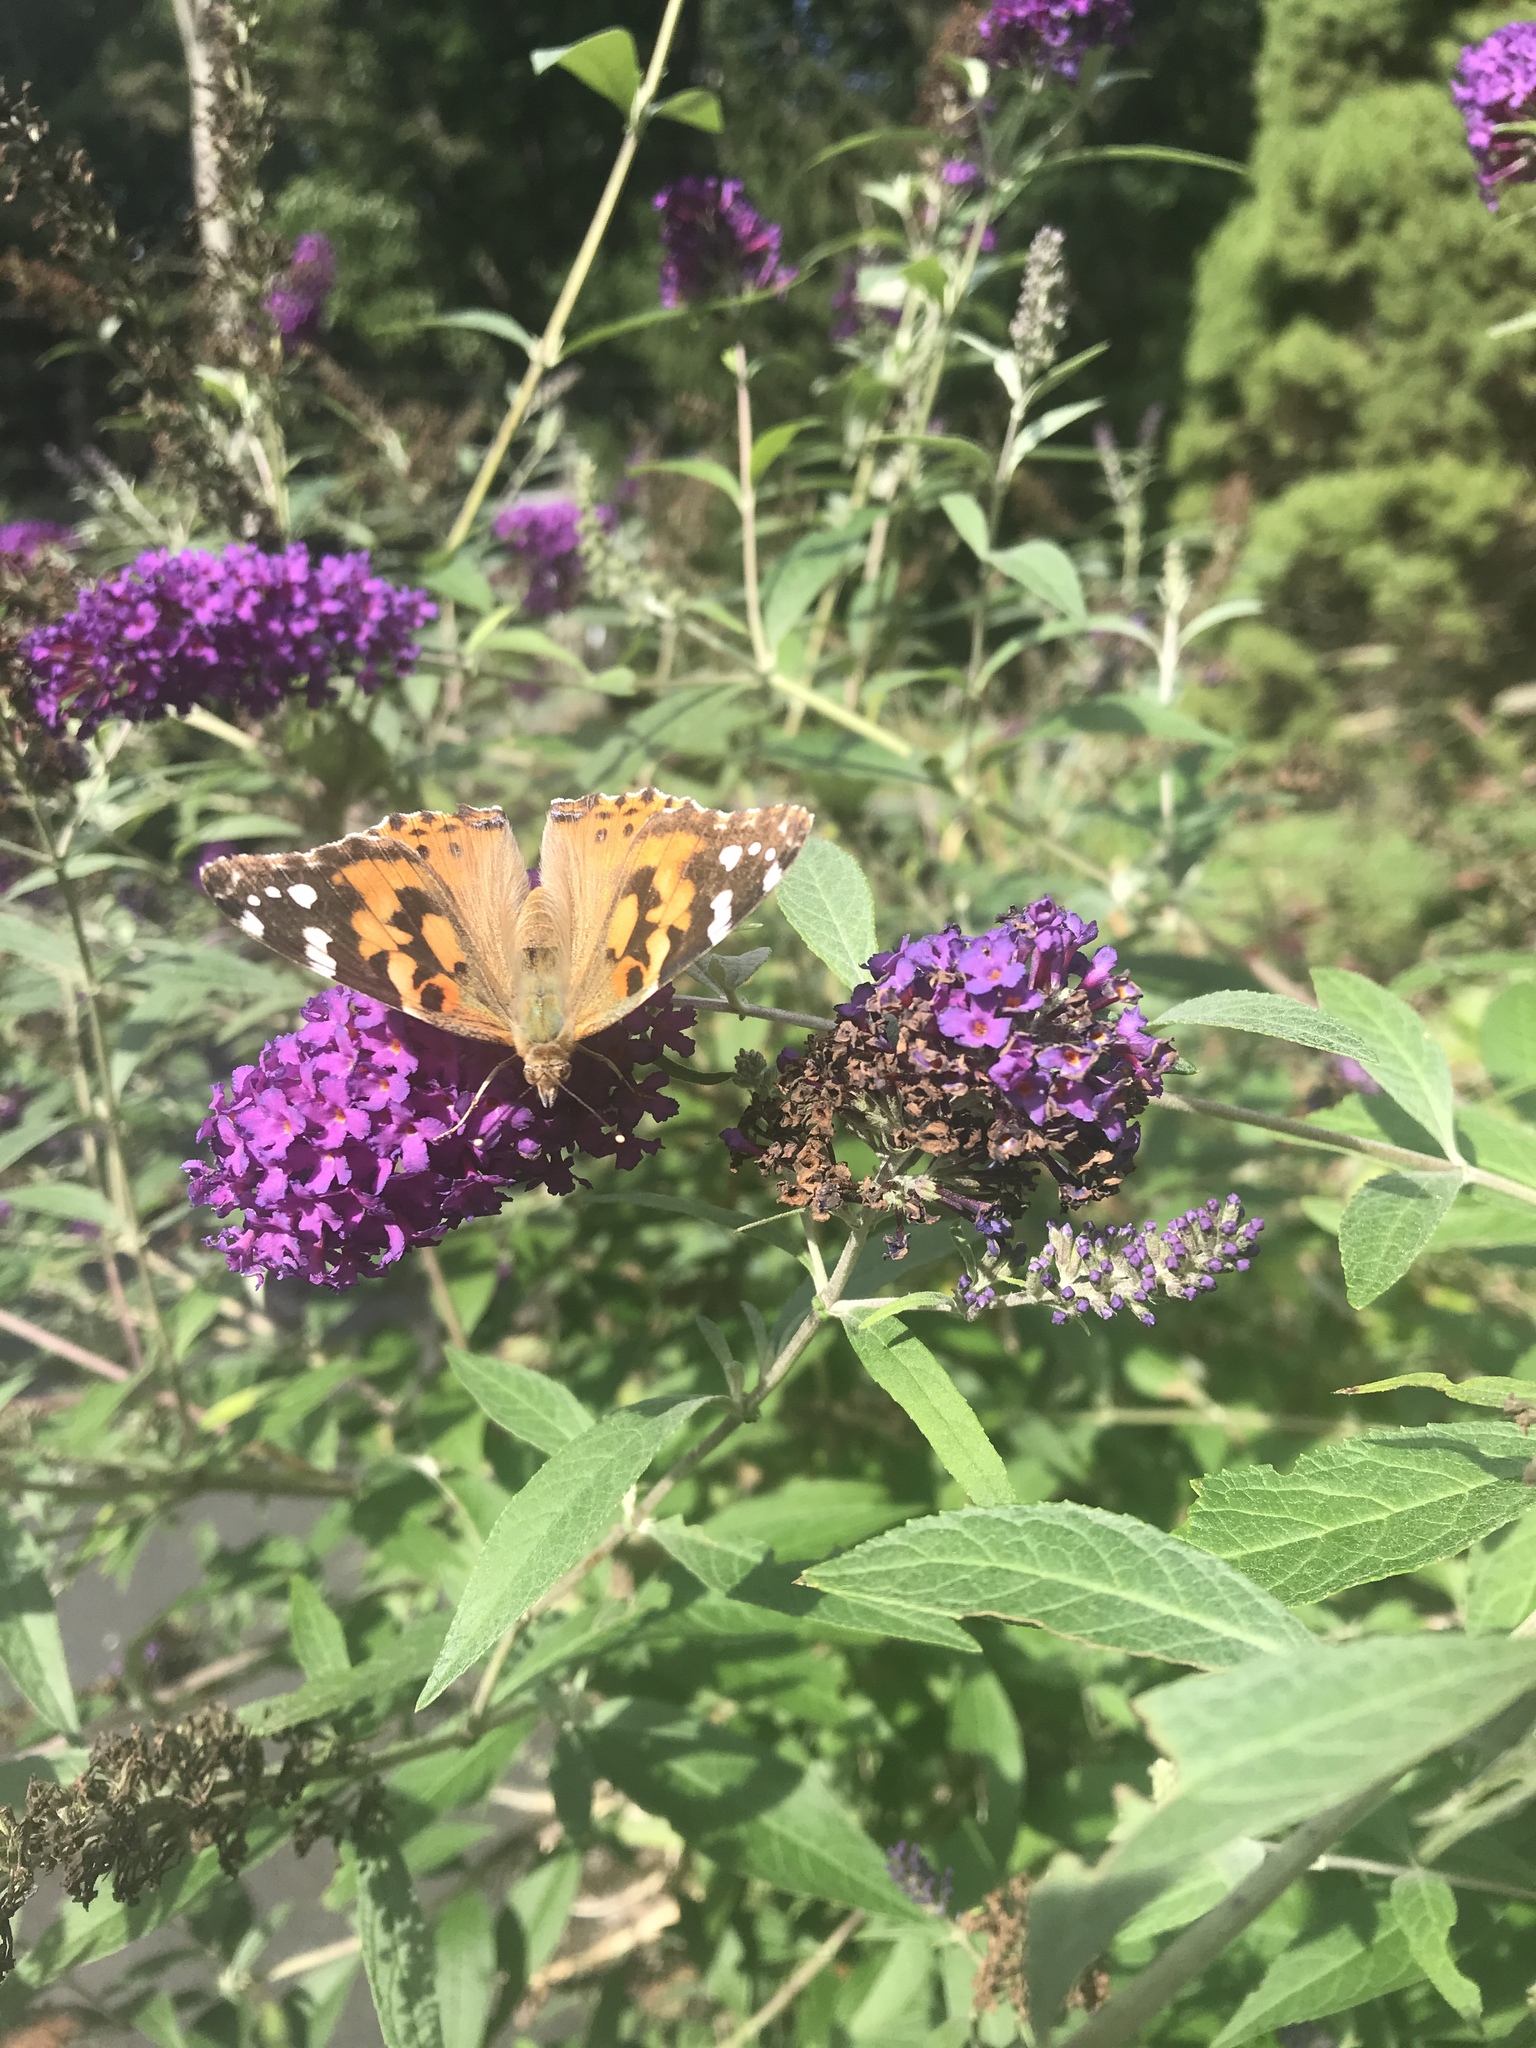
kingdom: Animalia
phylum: Arthropoda
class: Insecta
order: Lepidoptera
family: Nymphalidae
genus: Vanessa
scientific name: Vanessa cardui
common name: Painted lady
